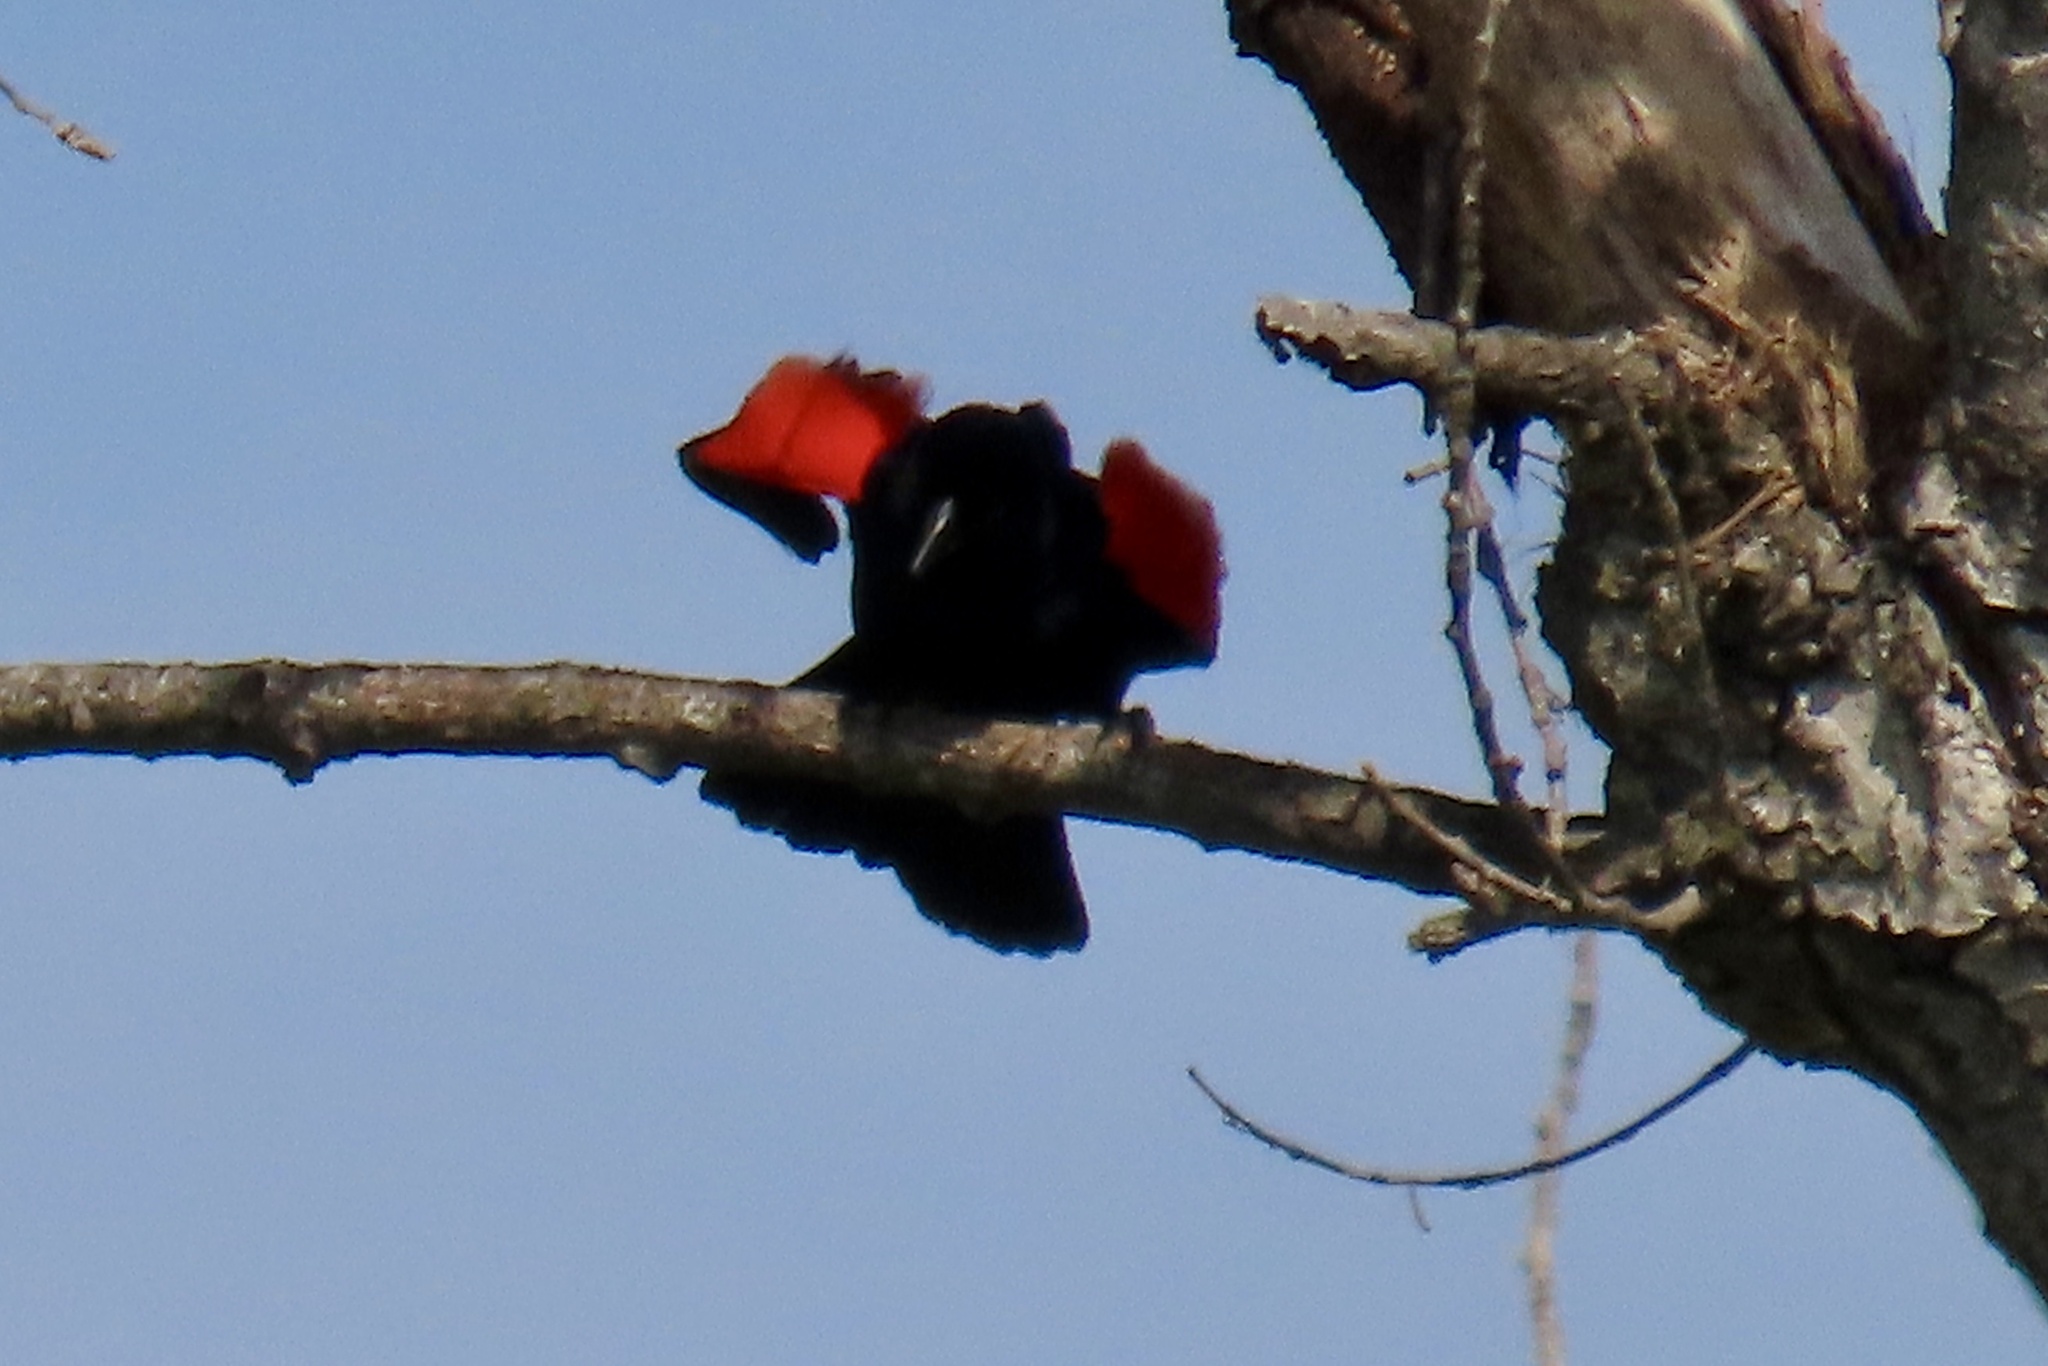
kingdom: Animalia
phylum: Chordata
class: Aves
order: Passeriformes
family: Icteridae
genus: Agelaius
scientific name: Agelaius phoeniceus
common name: Red-winged blackbird
